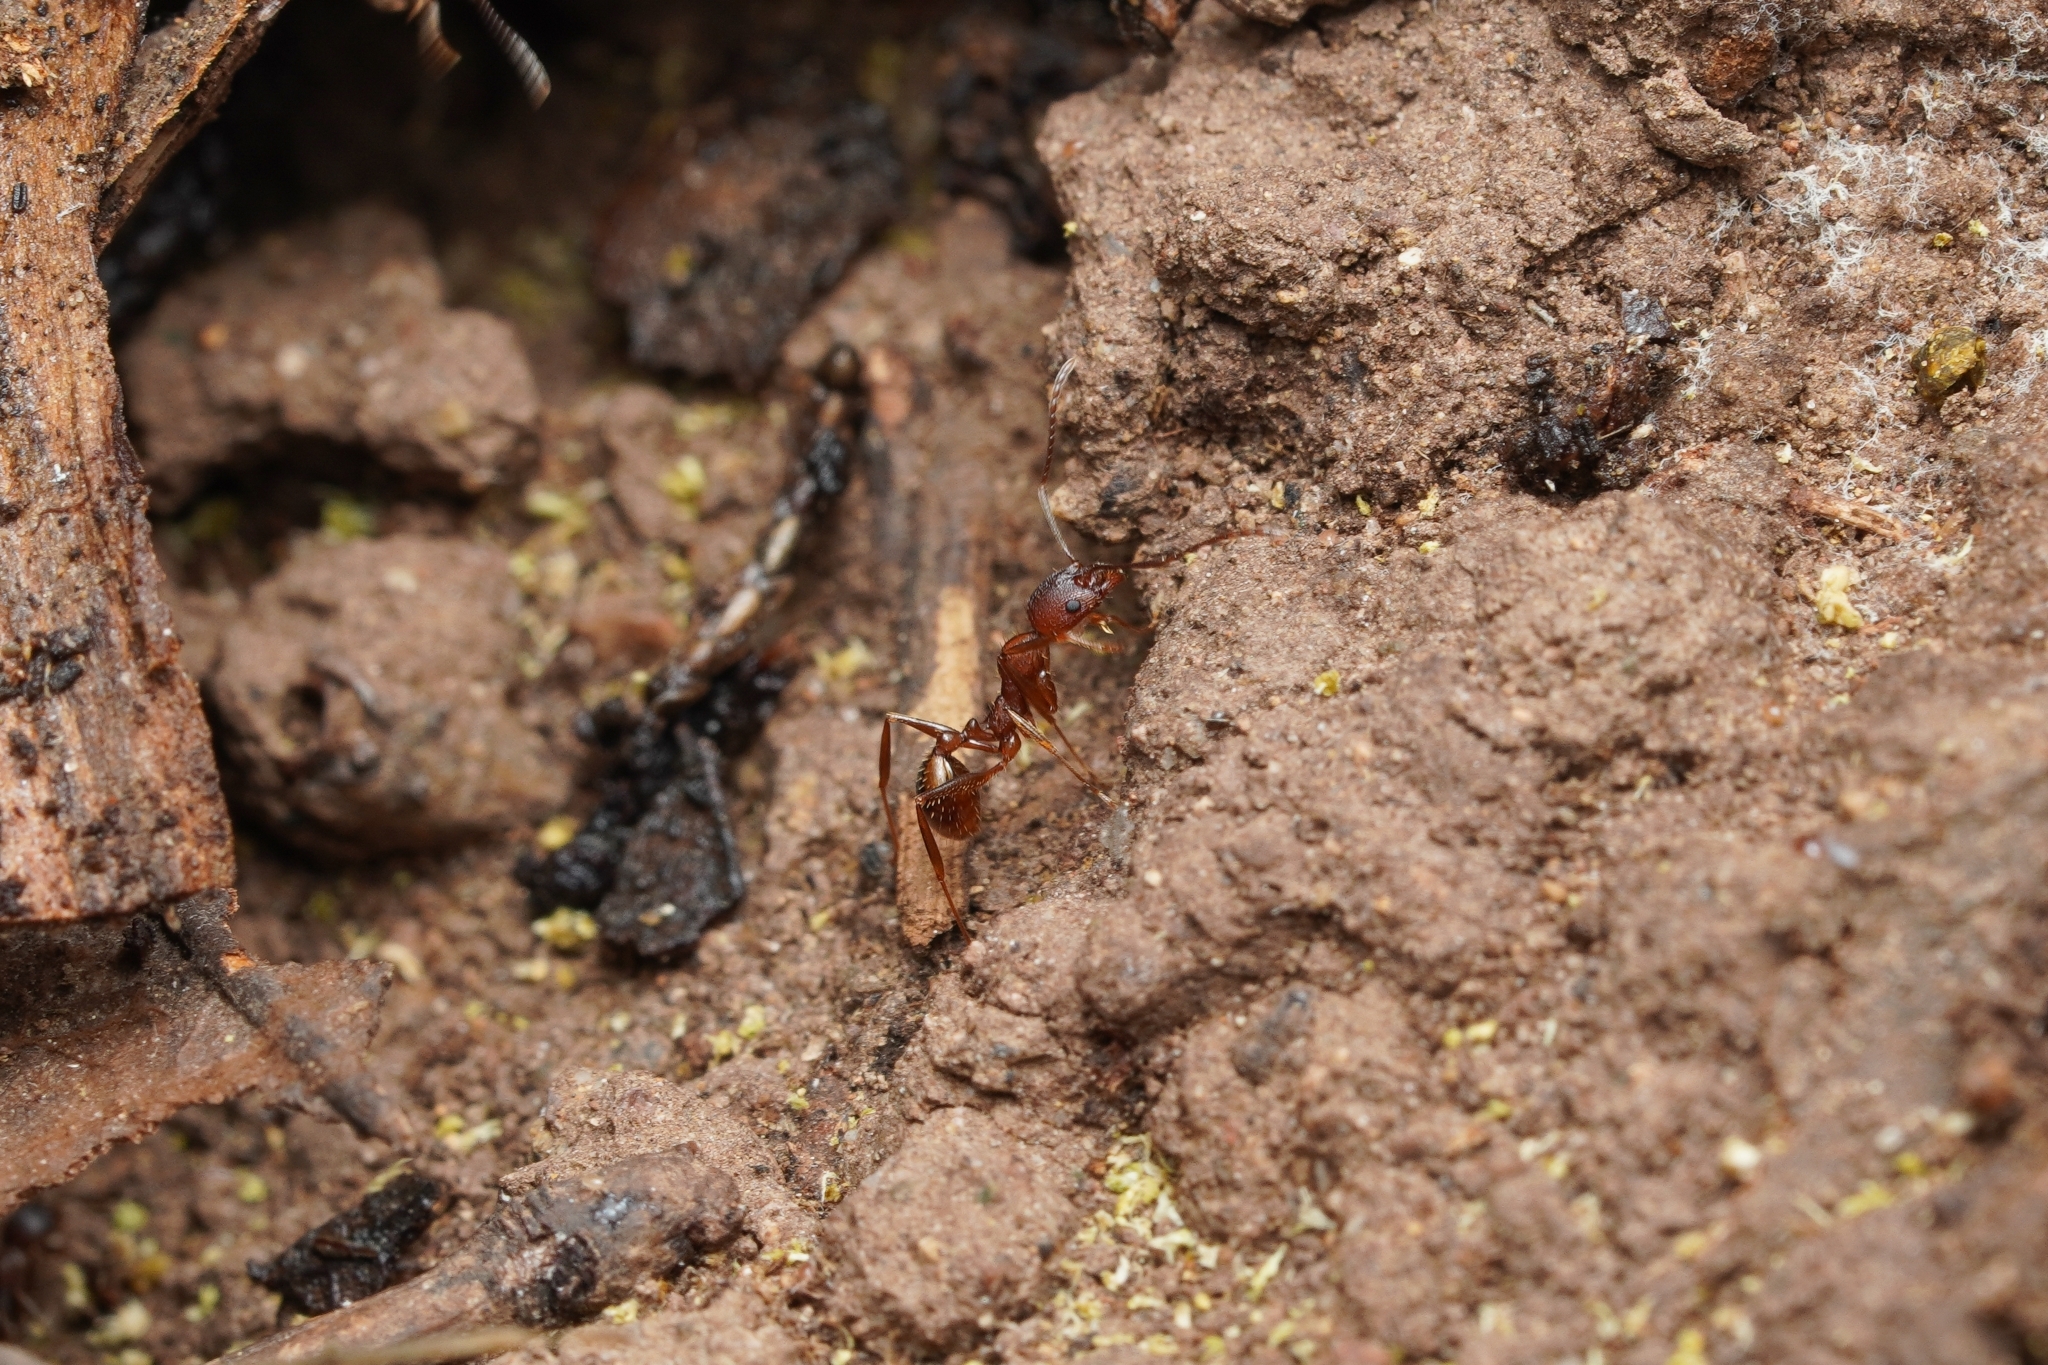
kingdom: Animalia
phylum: Arthropoda
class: Insecta
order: Hymenoptera
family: Formicidae
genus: Aphaenogaster
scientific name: Aphaenogaster texana
